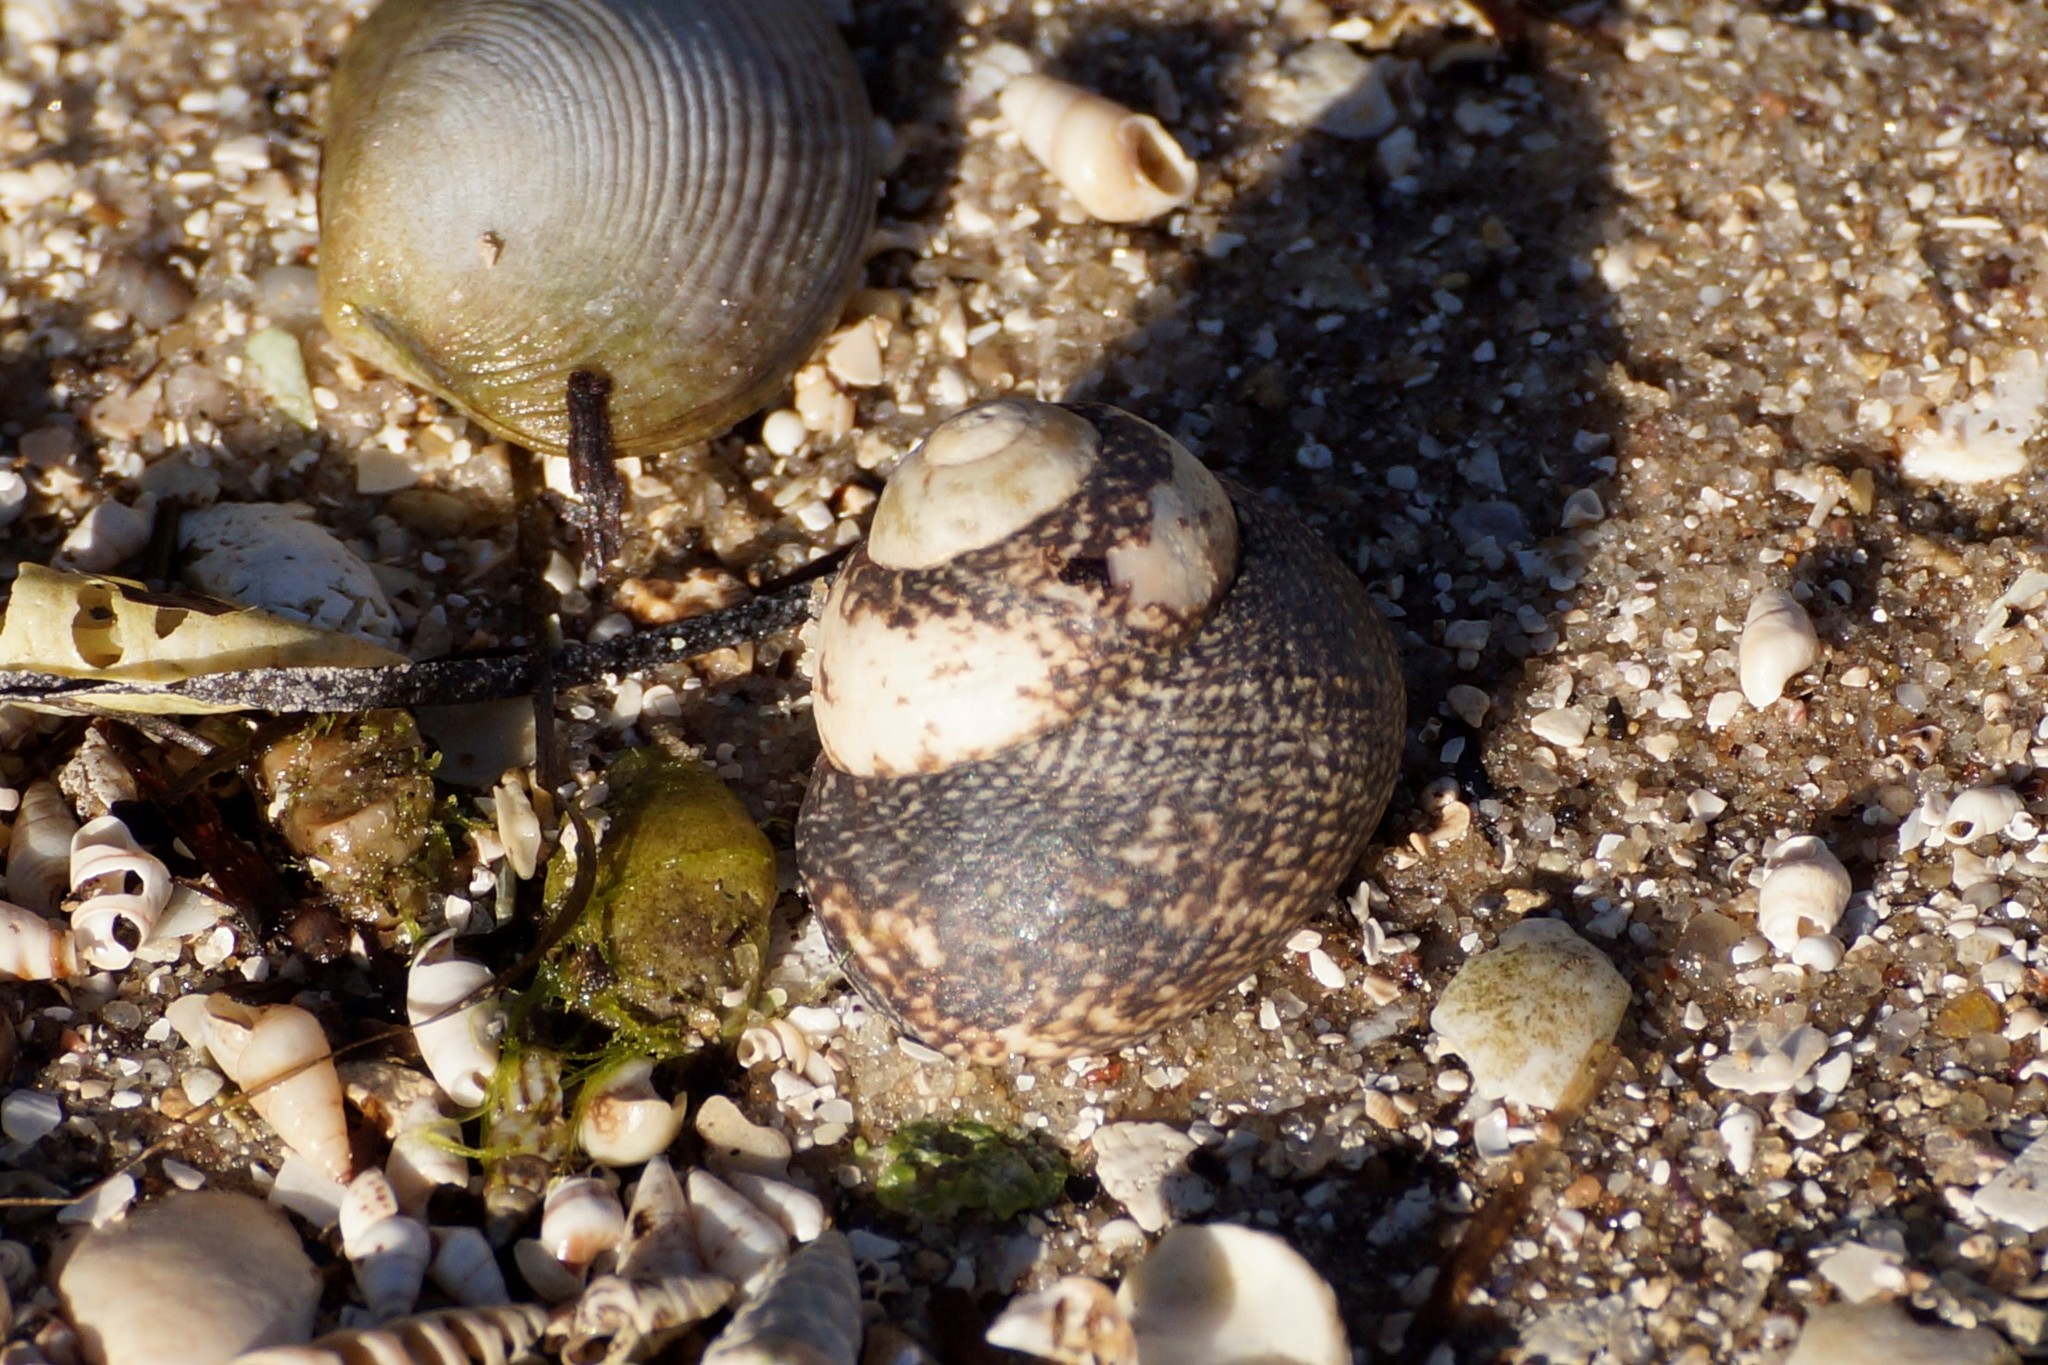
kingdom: Animalia
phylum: Mollusca
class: Gastropoda
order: Trochida
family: Trochidae
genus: Chlorodiloma
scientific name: Chlorodiloma odontis
